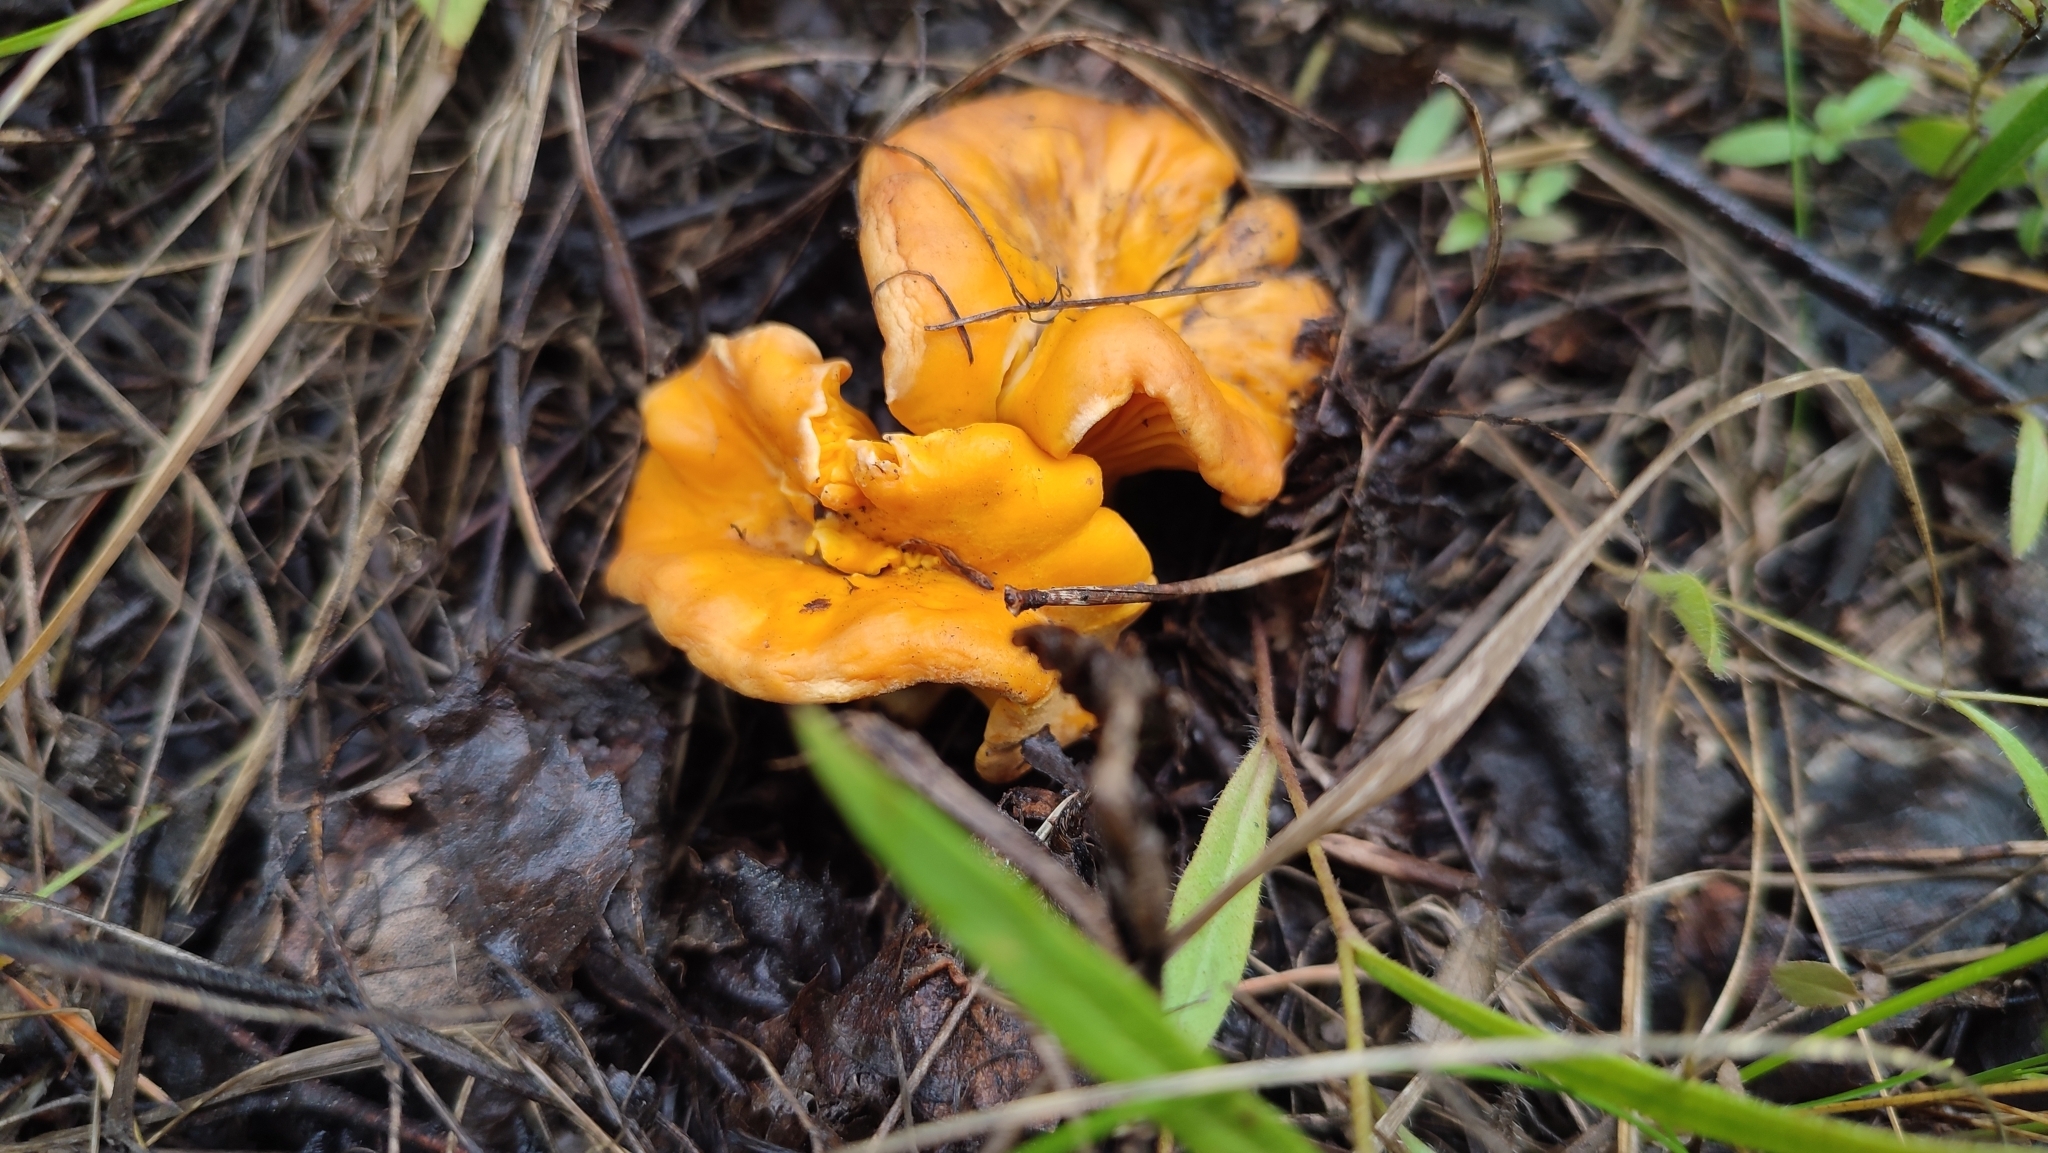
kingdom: Fungi
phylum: Basidiomycota
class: Agaricomycetes
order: Cantharellales
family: Hydnaceae
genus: Cantharellus
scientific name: Cantharellus cibarius
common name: Chanterelle
